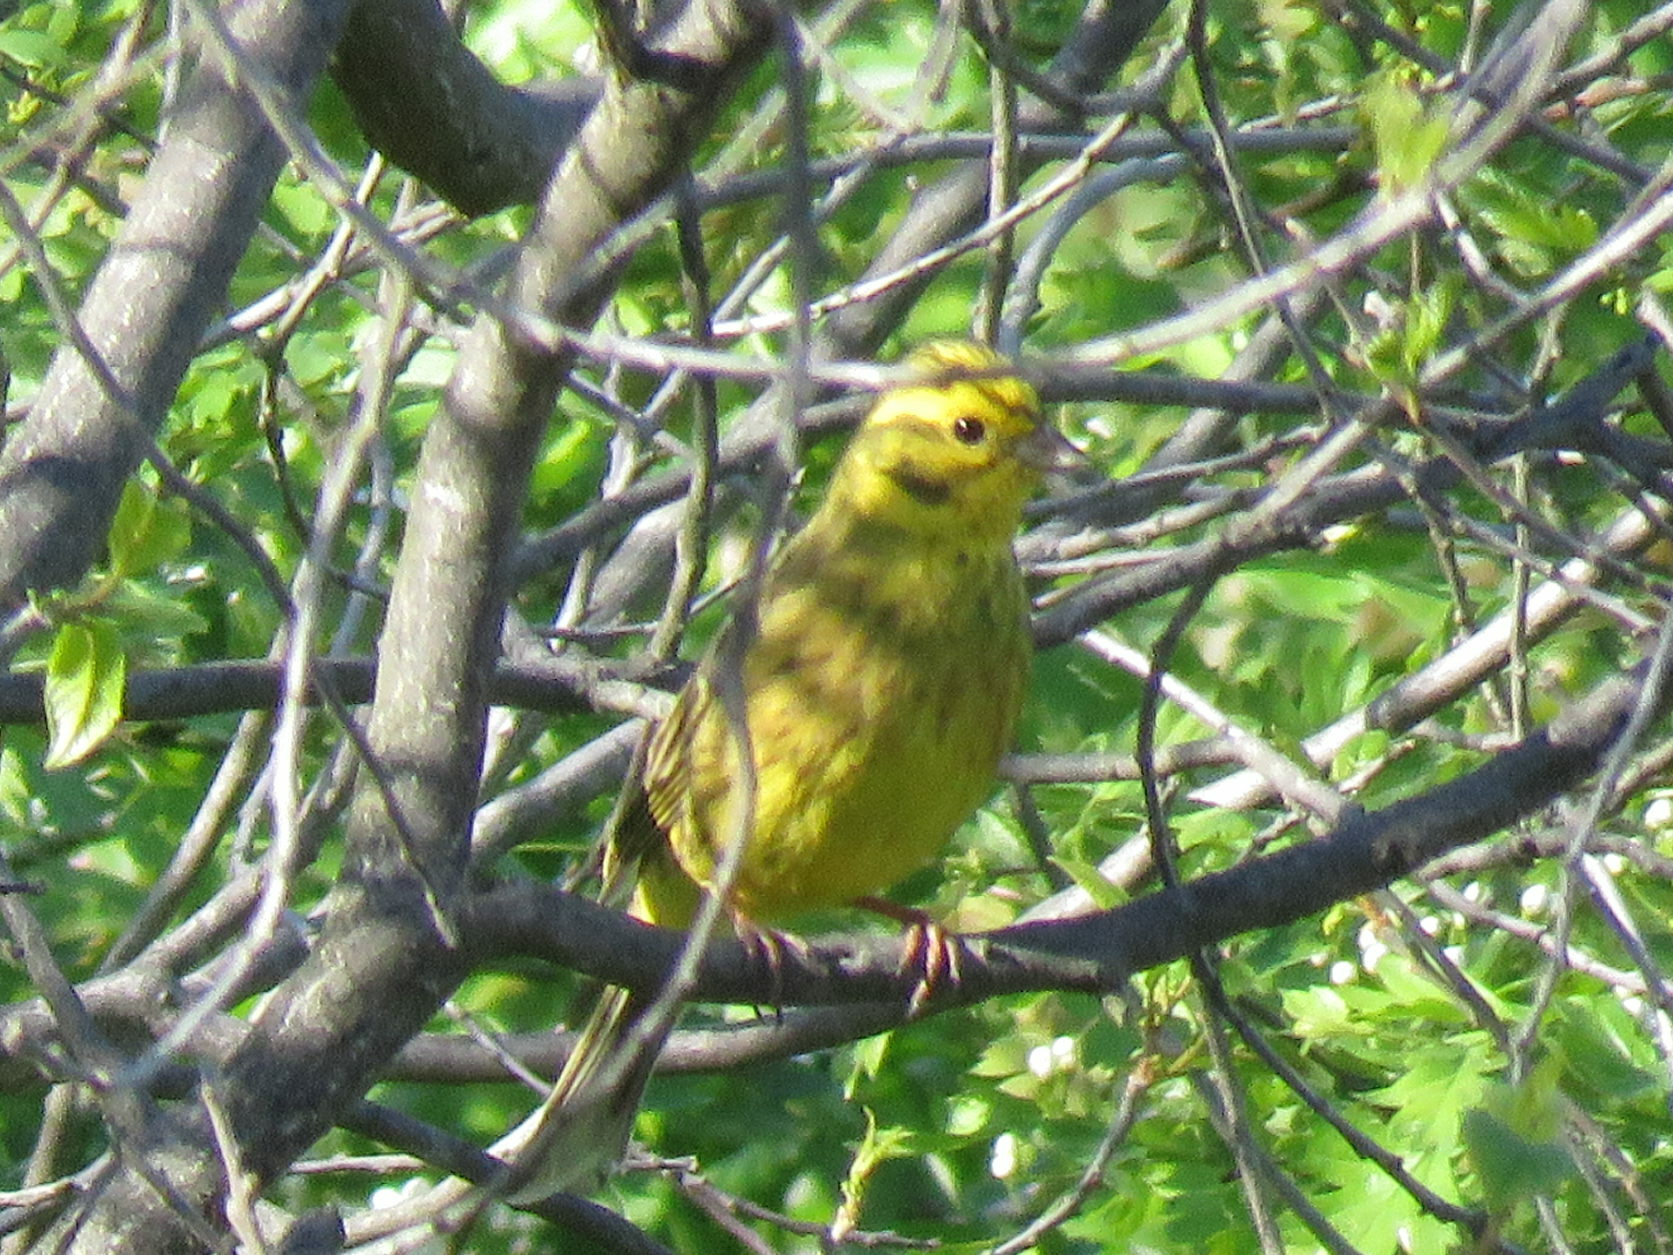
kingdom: Animalia
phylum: Chordata
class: Aves
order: Passeriformes
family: Emberizidae
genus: Emberiza
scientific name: Emberiza citrinella
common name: Yellowhammer
